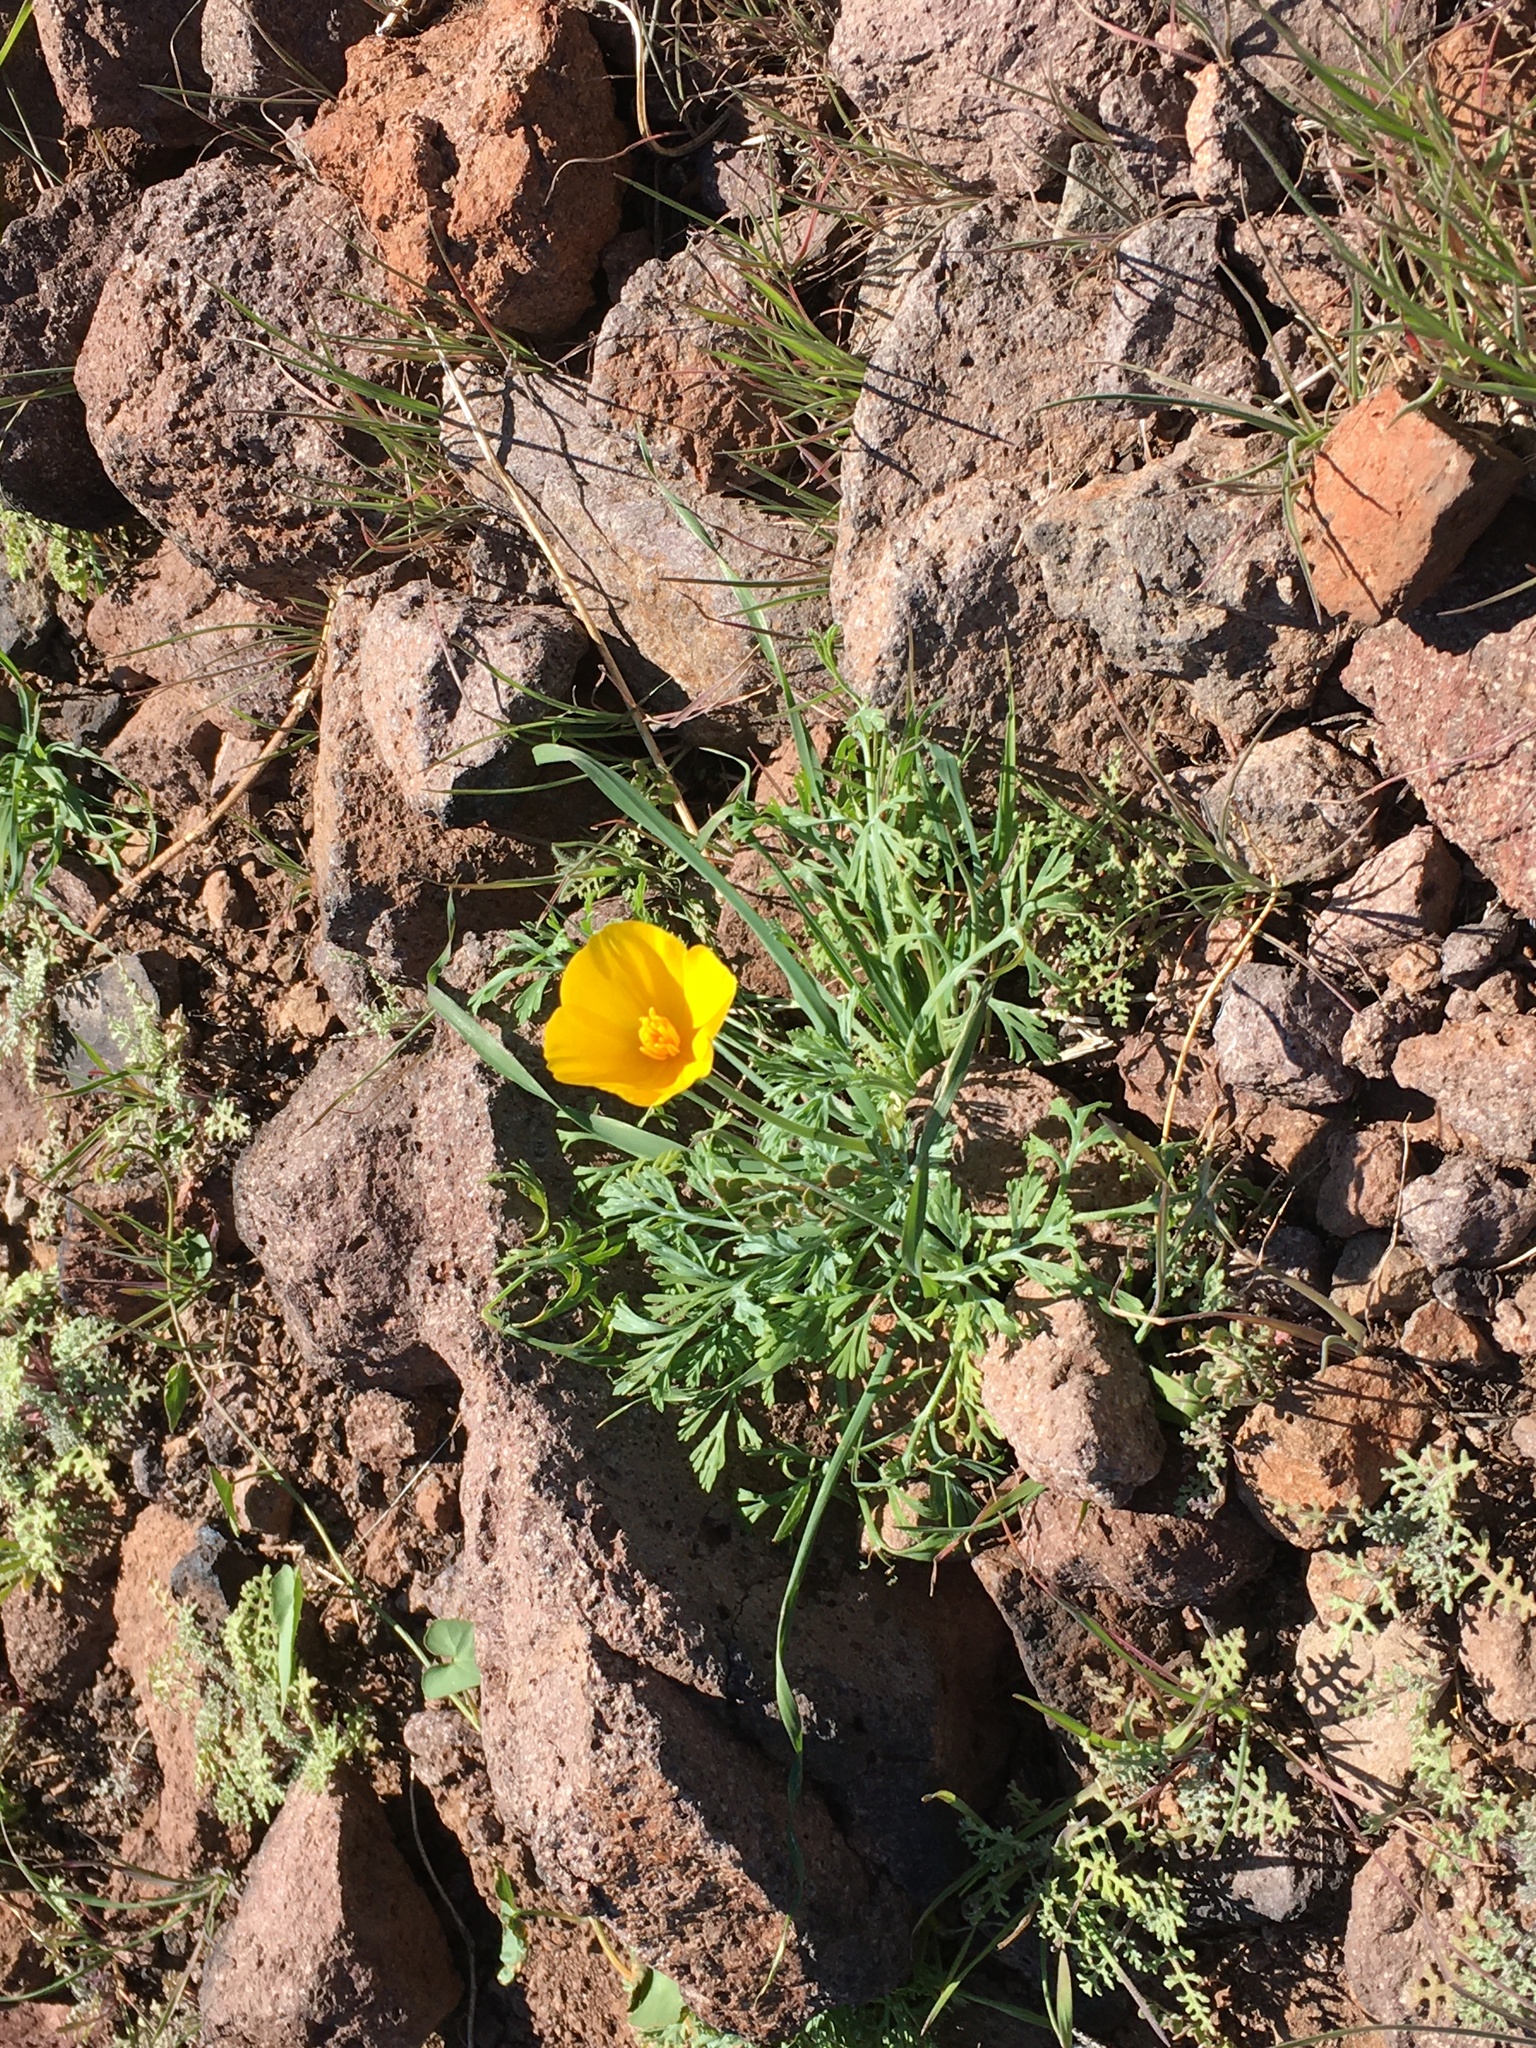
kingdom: Plantae
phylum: Tracheophyta
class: Magnoliopsida
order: Ranunculales
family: Papaveraceae
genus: Eschscholzia
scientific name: Eschscholzia californica
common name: California poppy
